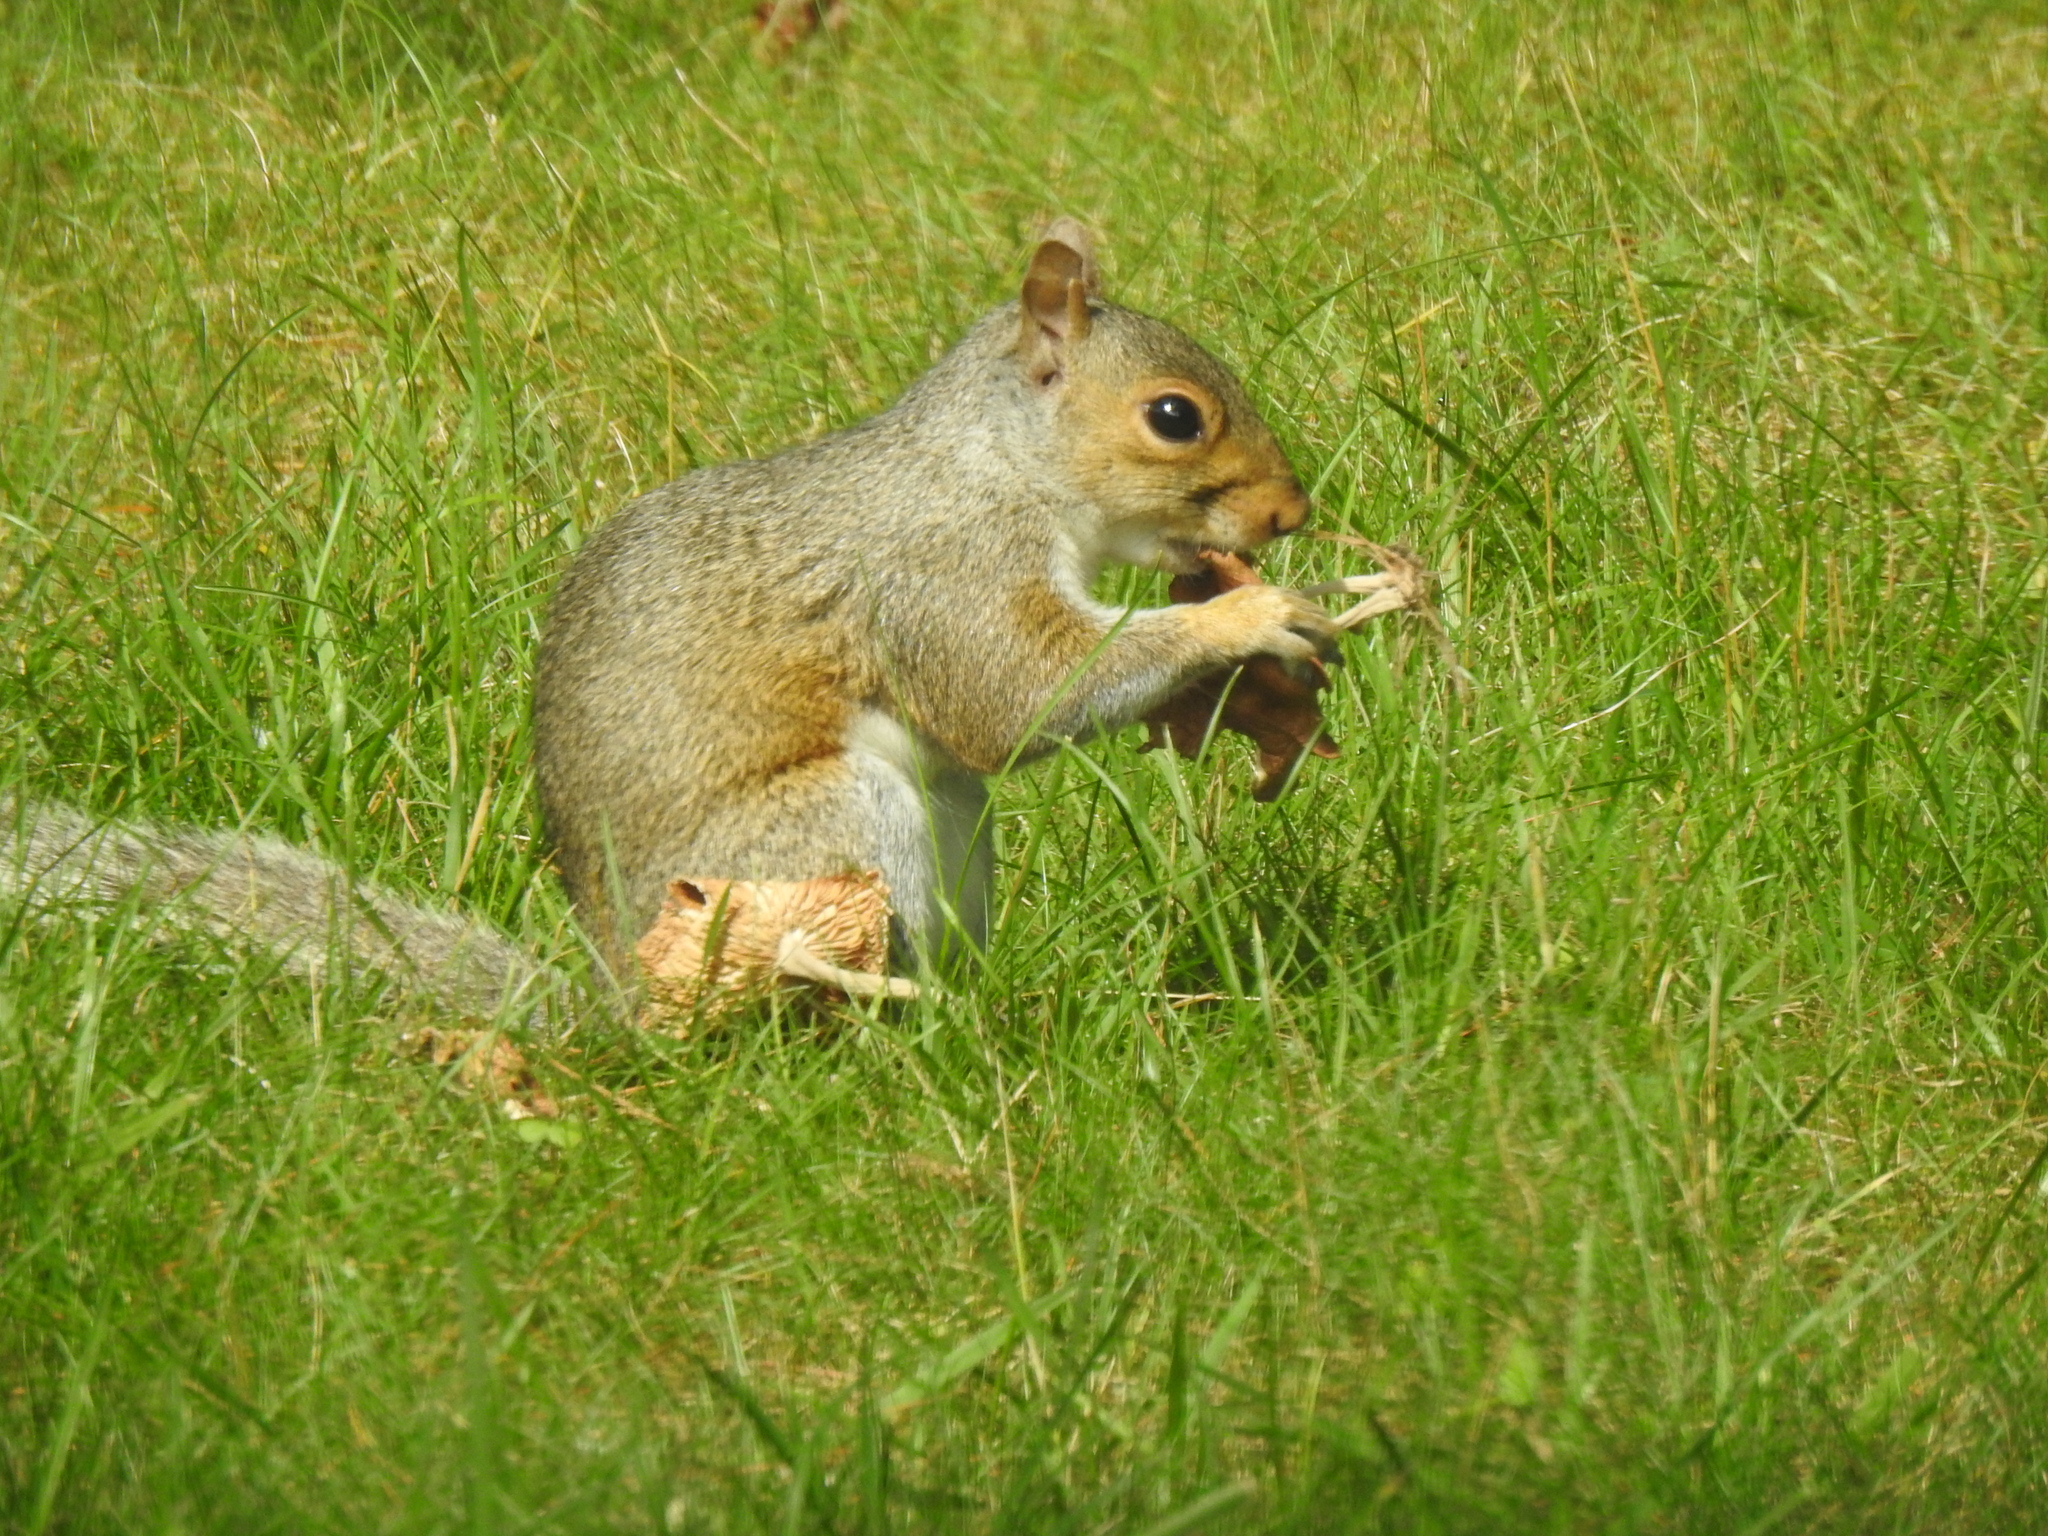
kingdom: Animalia
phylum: Chordata
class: Mammalia
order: Rodentia
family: Sciuridae
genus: Sciurus
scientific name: Sciurus carolinensis
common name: Eastern gray squirrel
